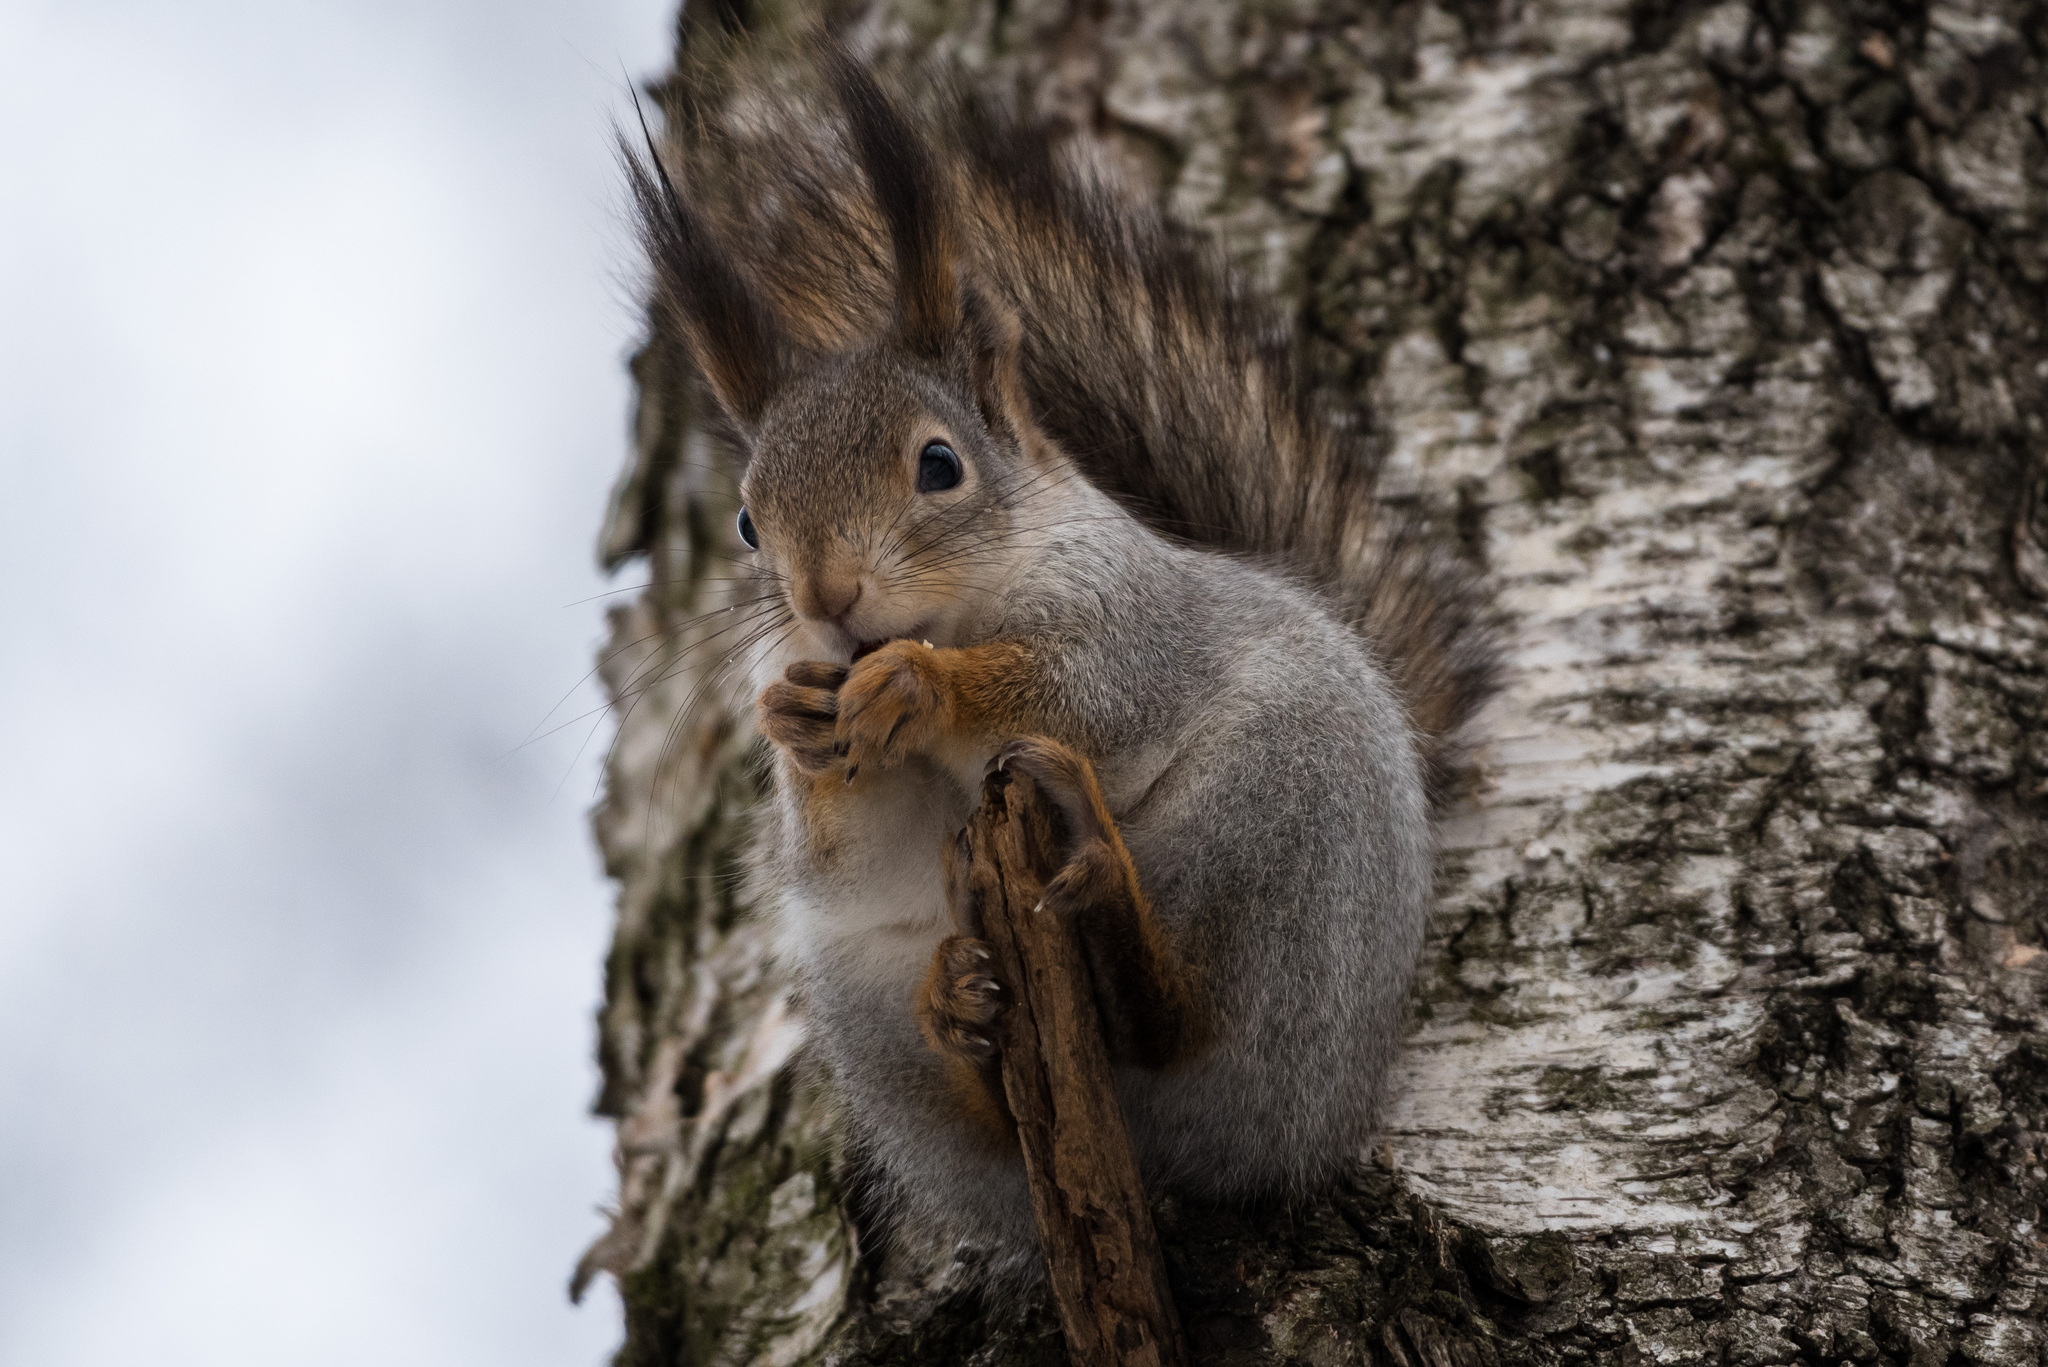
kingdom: Animalia
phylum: Chordata
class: Mammalia
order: Rodentia
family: Sciuridae
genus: Sciurus
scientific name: Sciurus vulgaris
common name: Eurasian red squirrel
